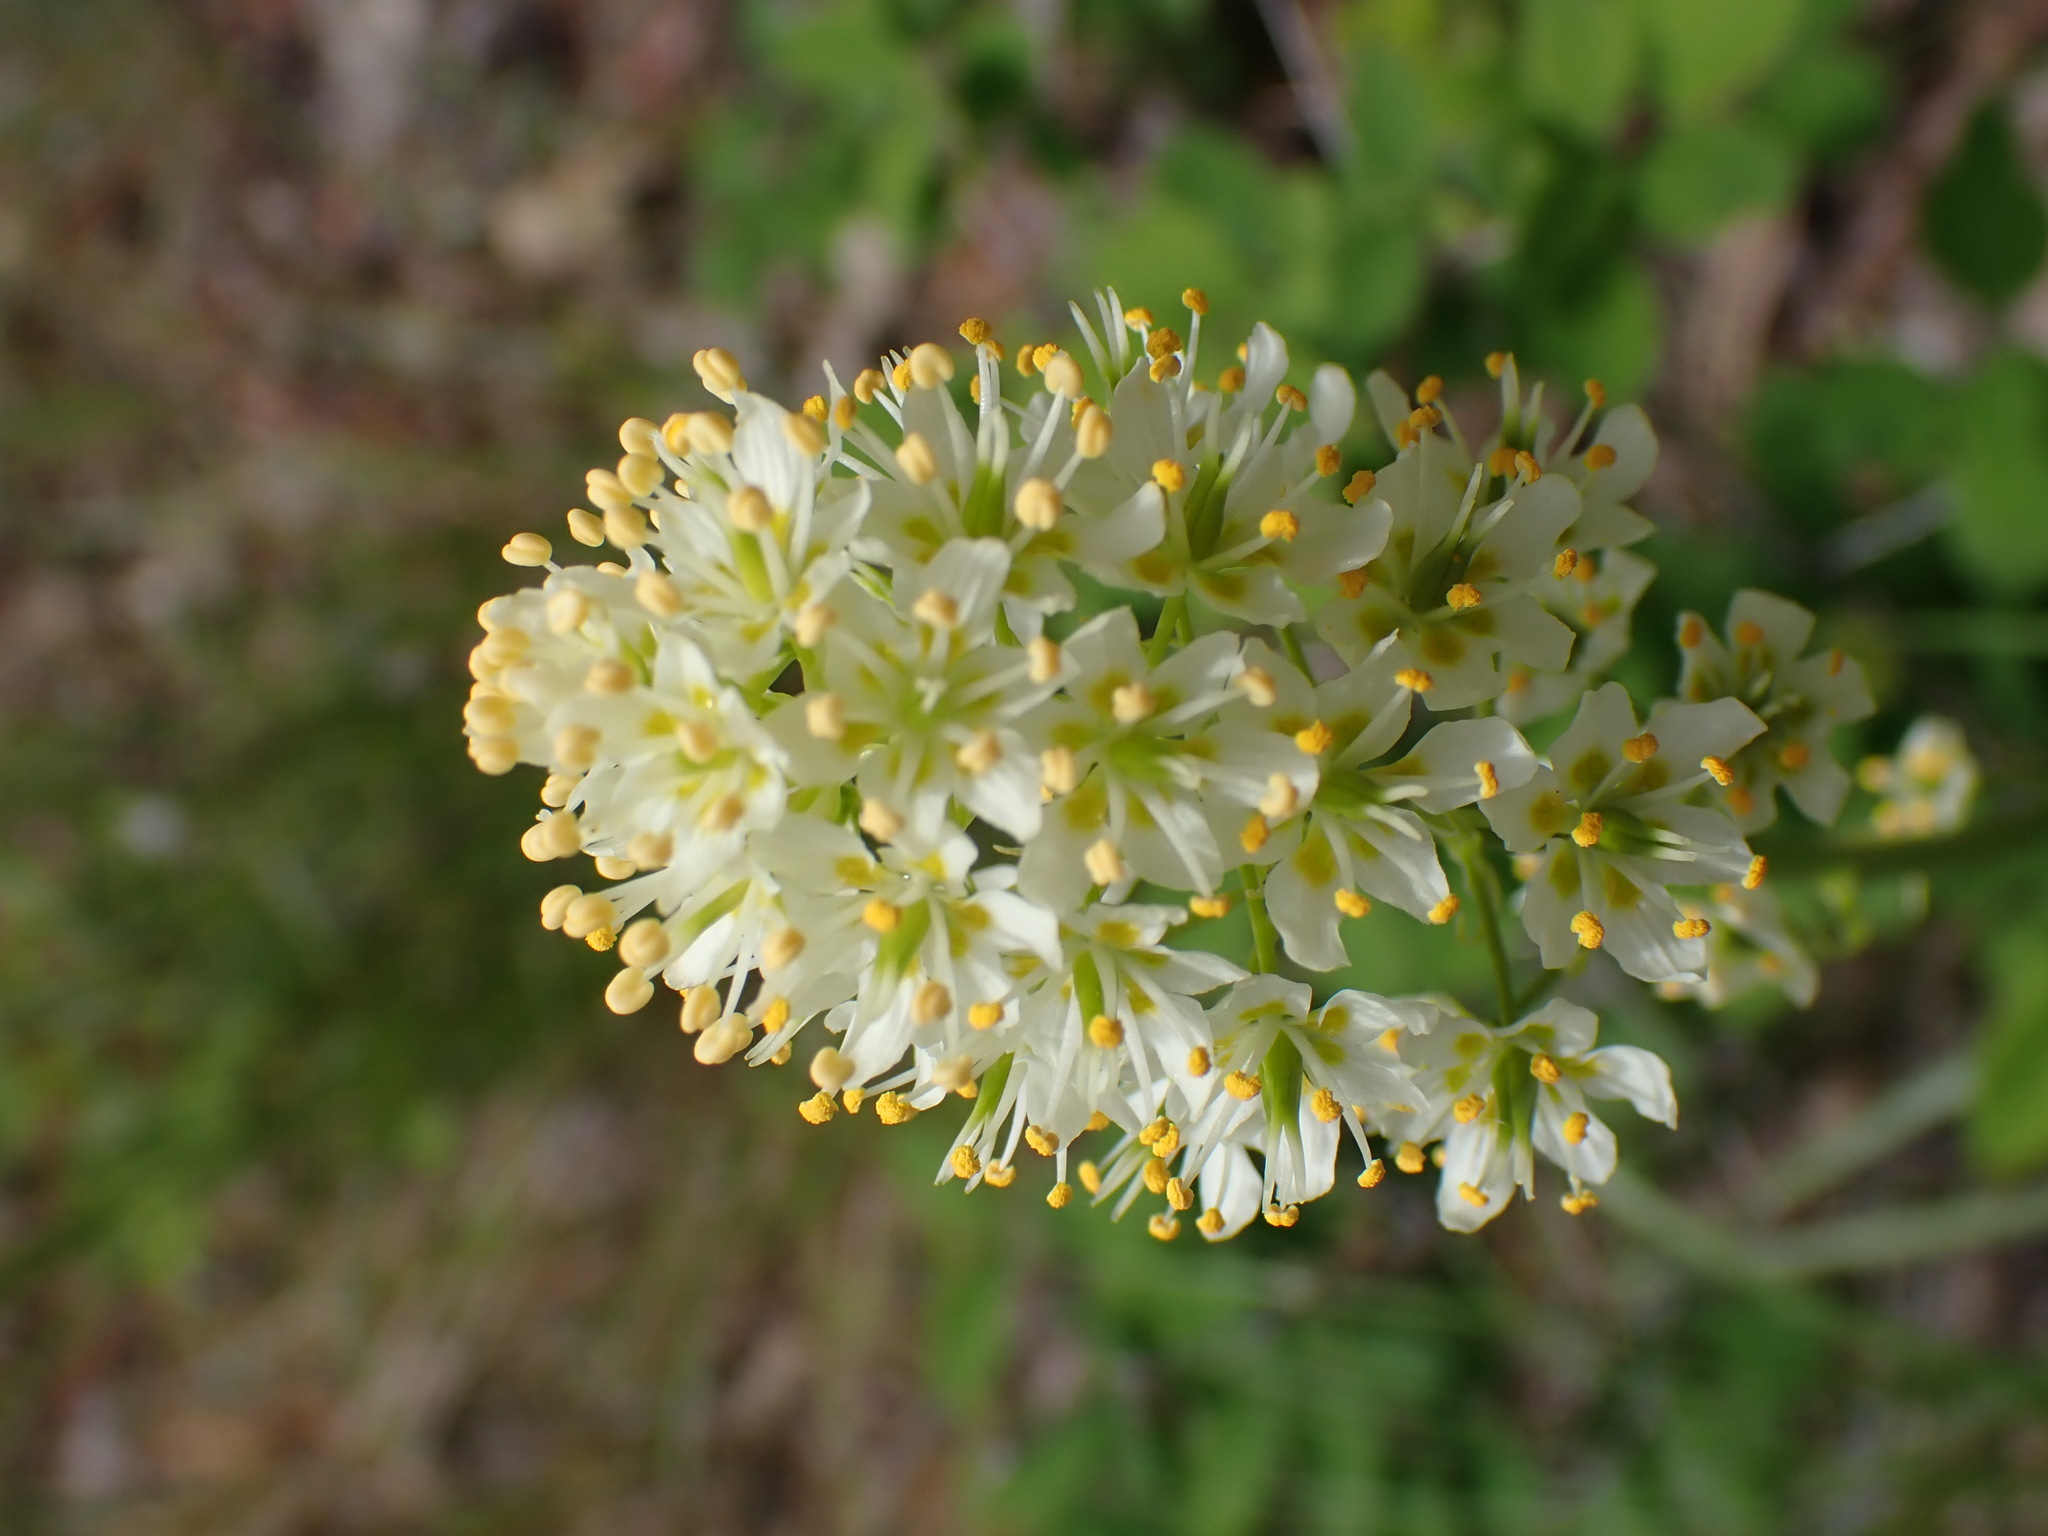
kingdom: Plantae
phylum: Tracheophyta
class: Liliopsida
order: Liliales
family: Melanthiaceae
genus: Toxicoscordion
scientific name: Toxicoscordion venenosum
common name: Meadow death camas
